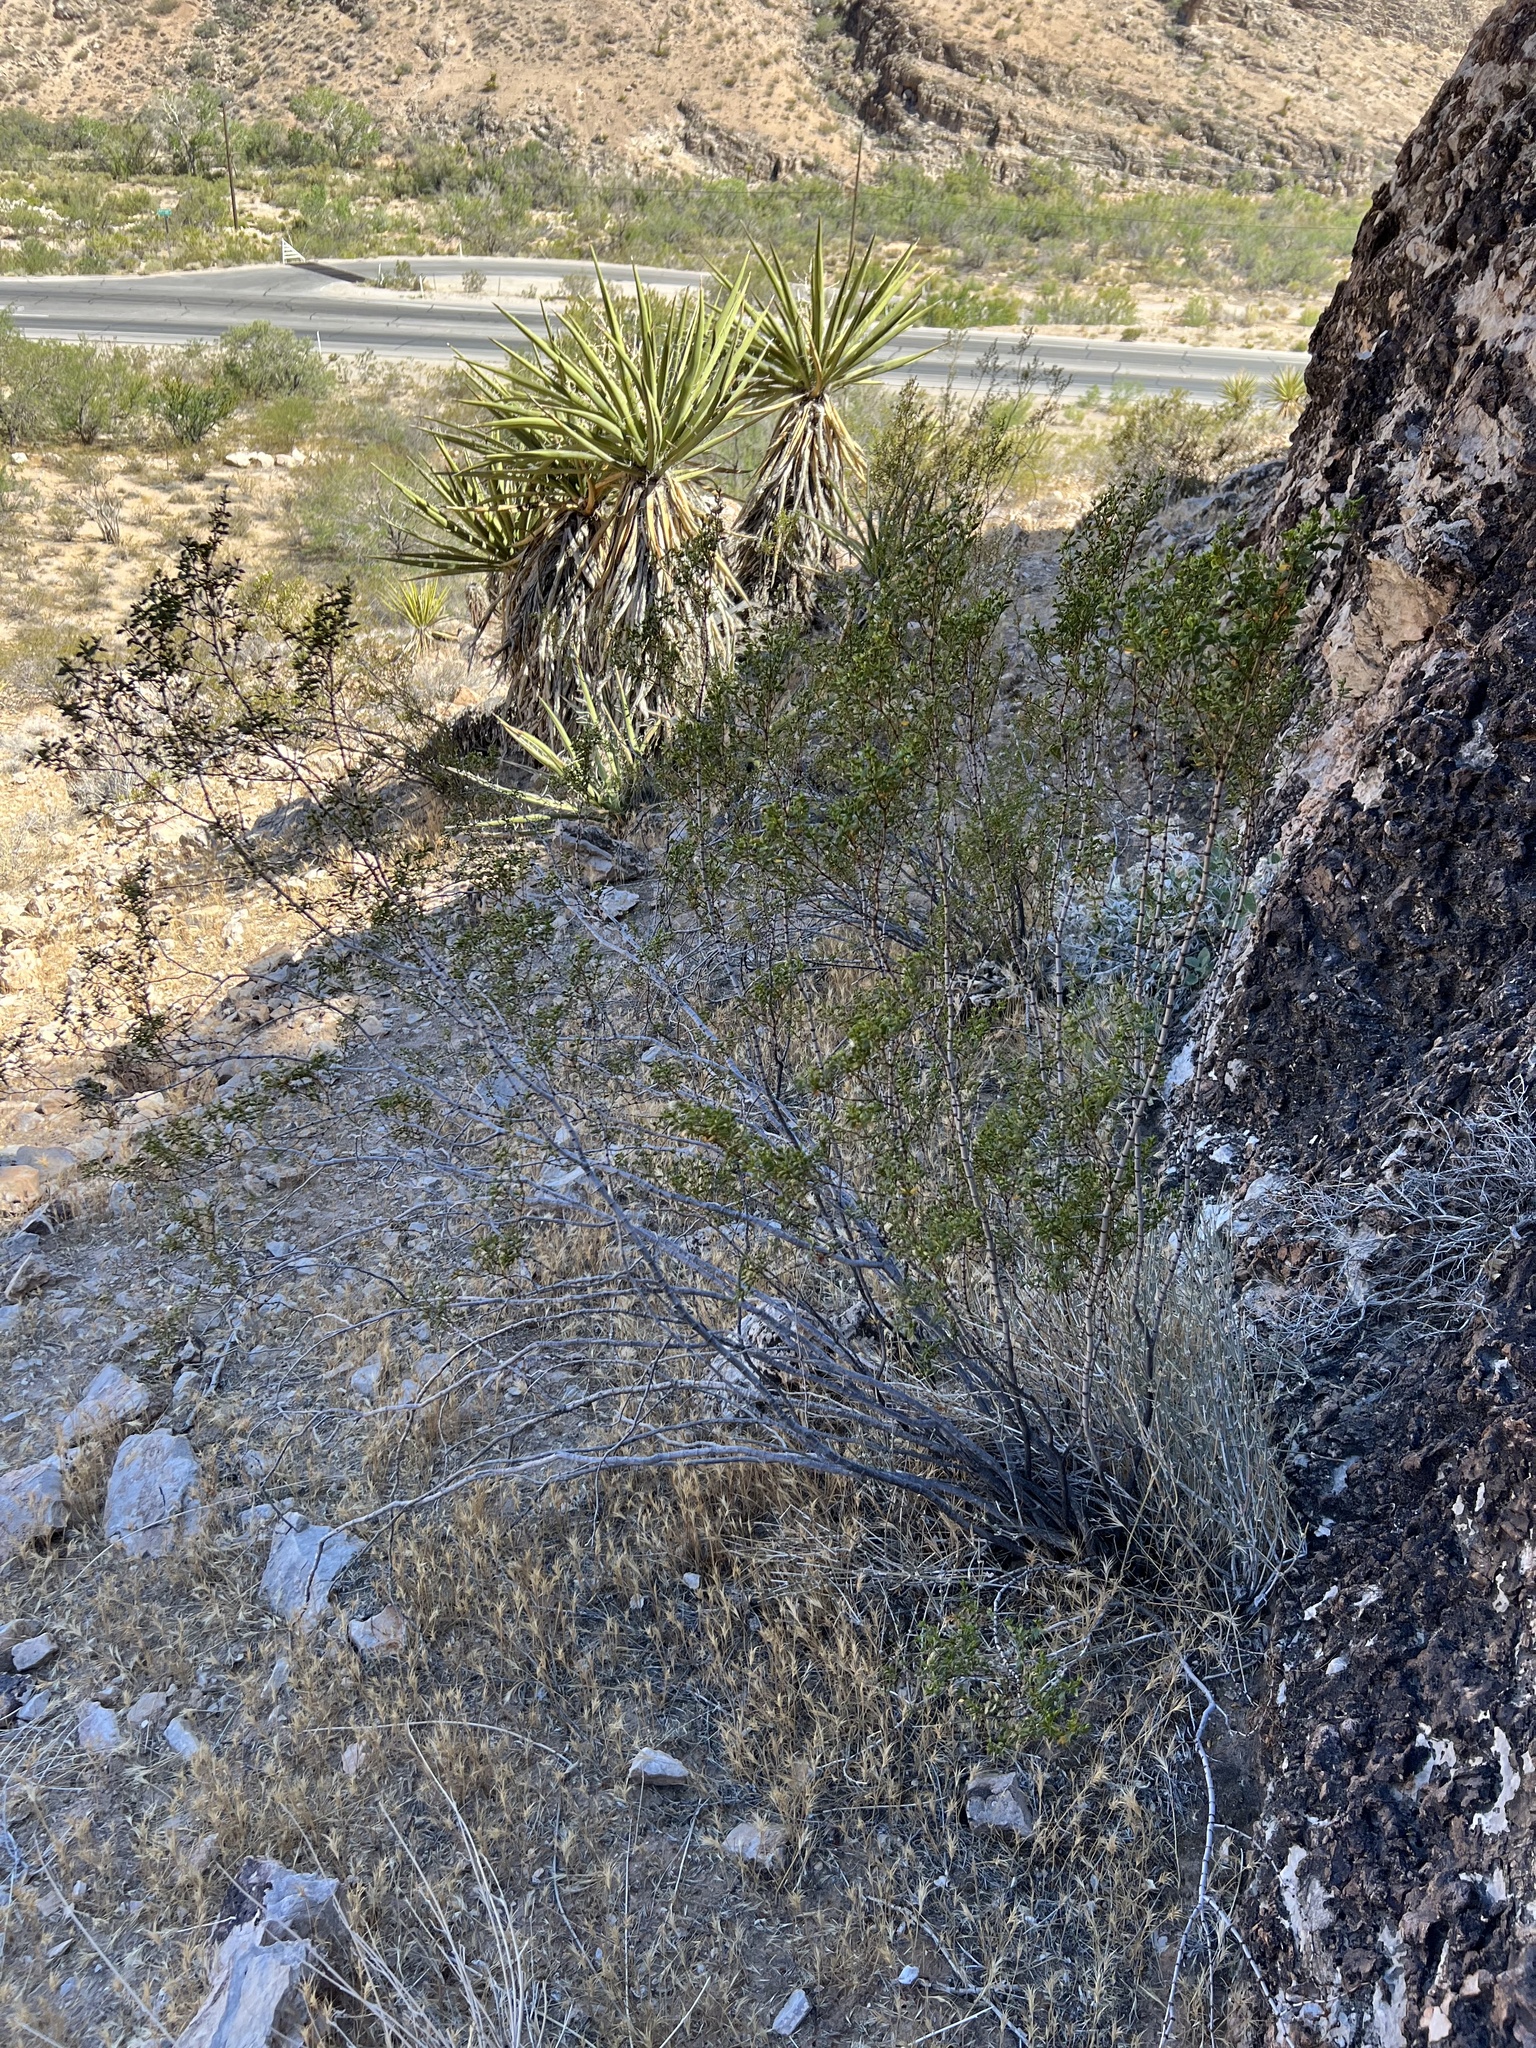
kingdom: Plantae
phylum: Tracheophyta
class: Magnoliopsida
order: Zygophyllales
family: Zygophyllaceae
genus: Larrea
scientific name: Larrea tridentata
